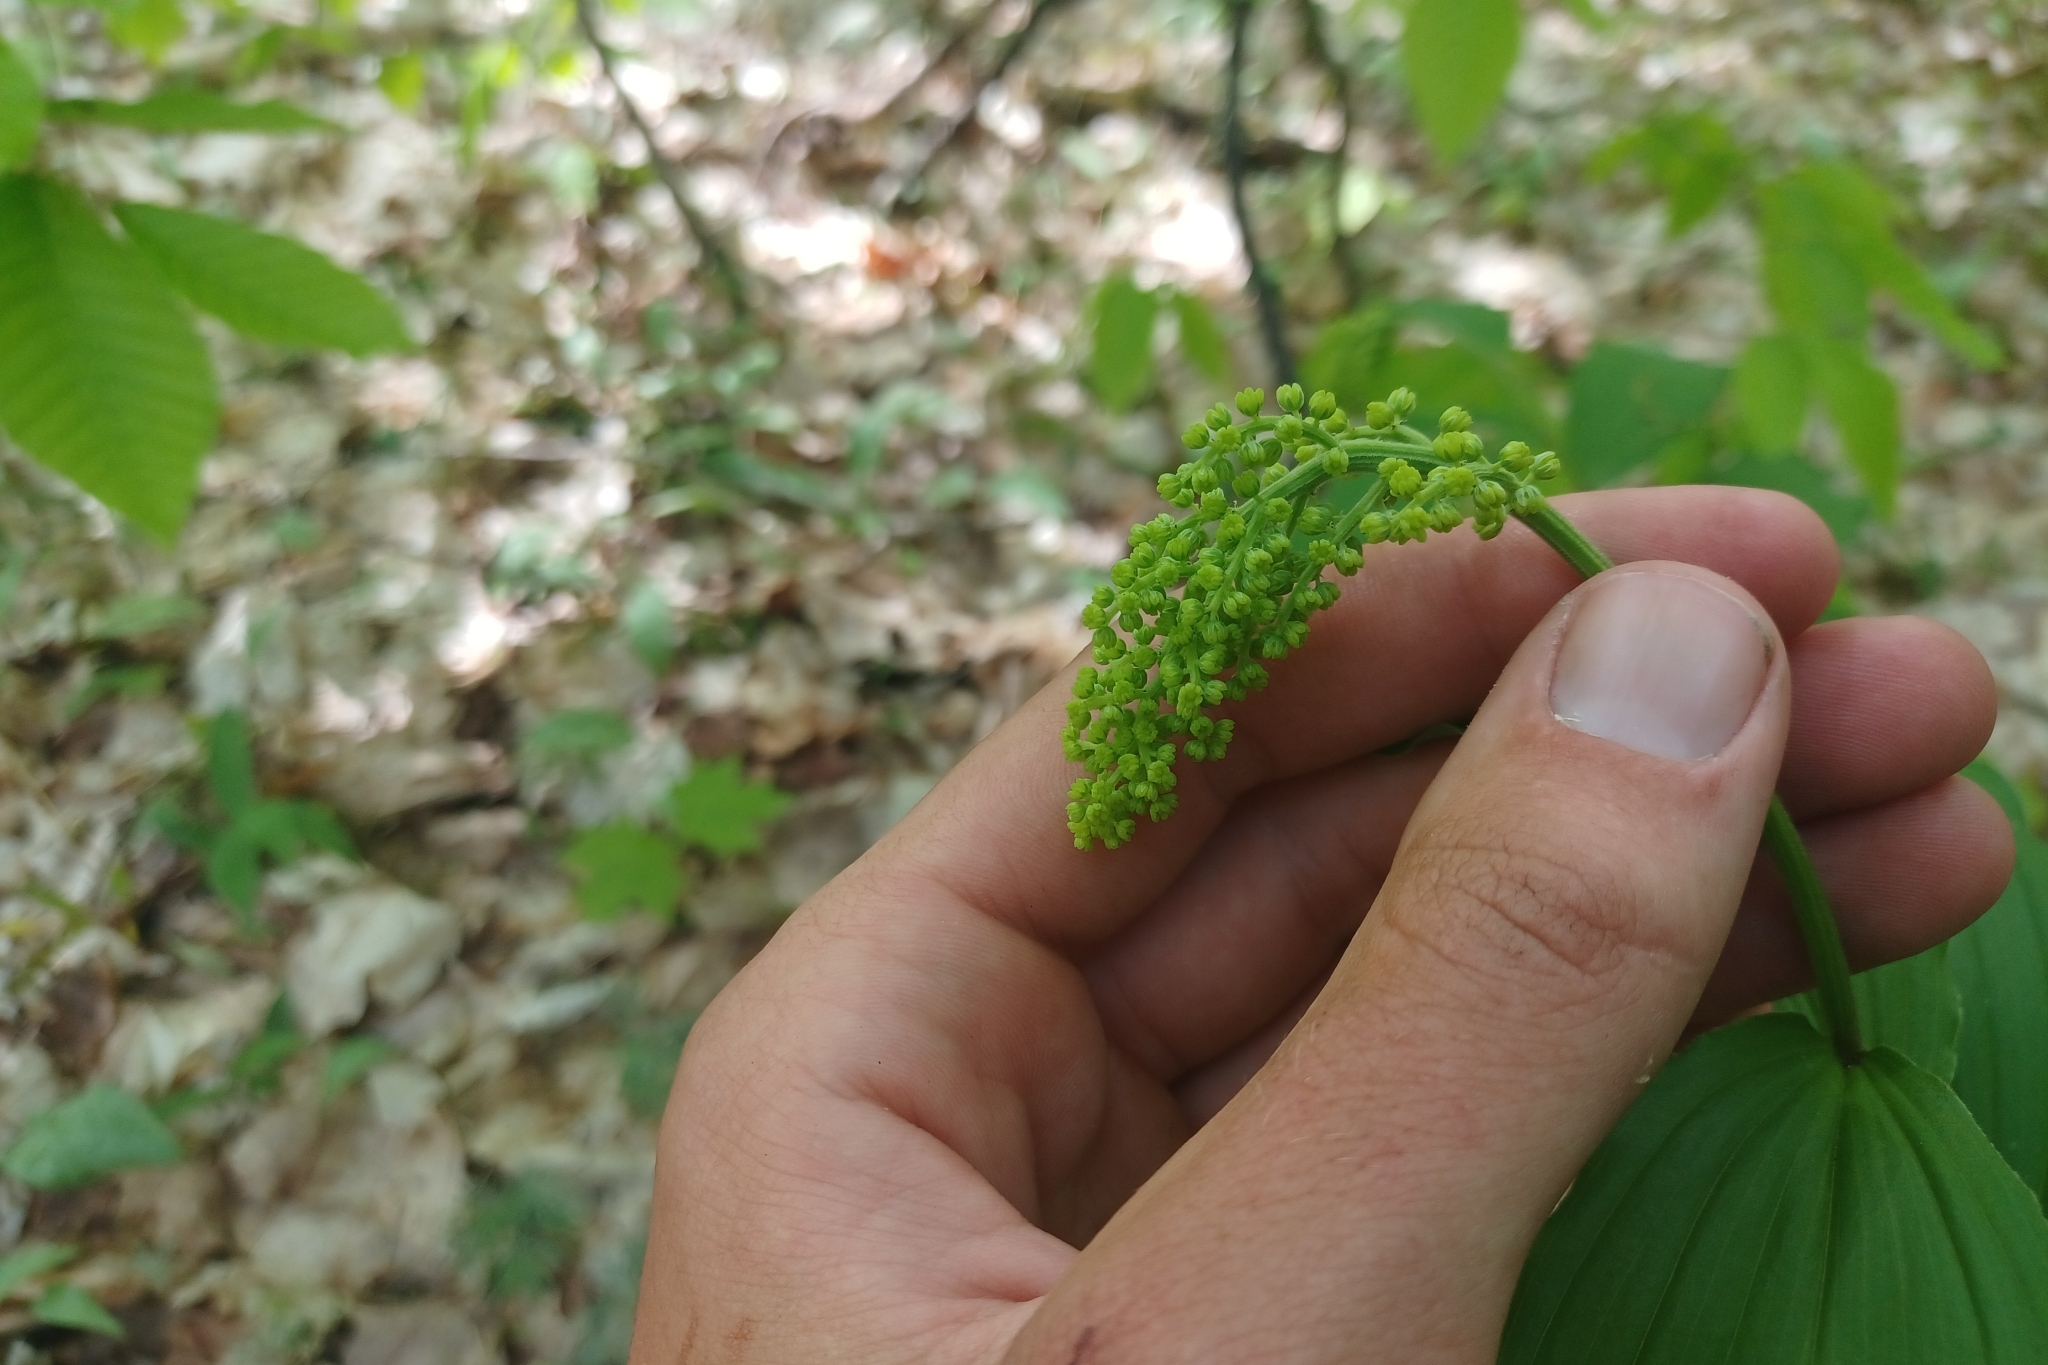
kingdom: Plantae
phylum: Tracheophyta
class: Liliopsida
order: Asparagales
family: Asparagaceae
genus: Maianthemum
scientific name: Maianthemum racemosum
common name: False spikenard
